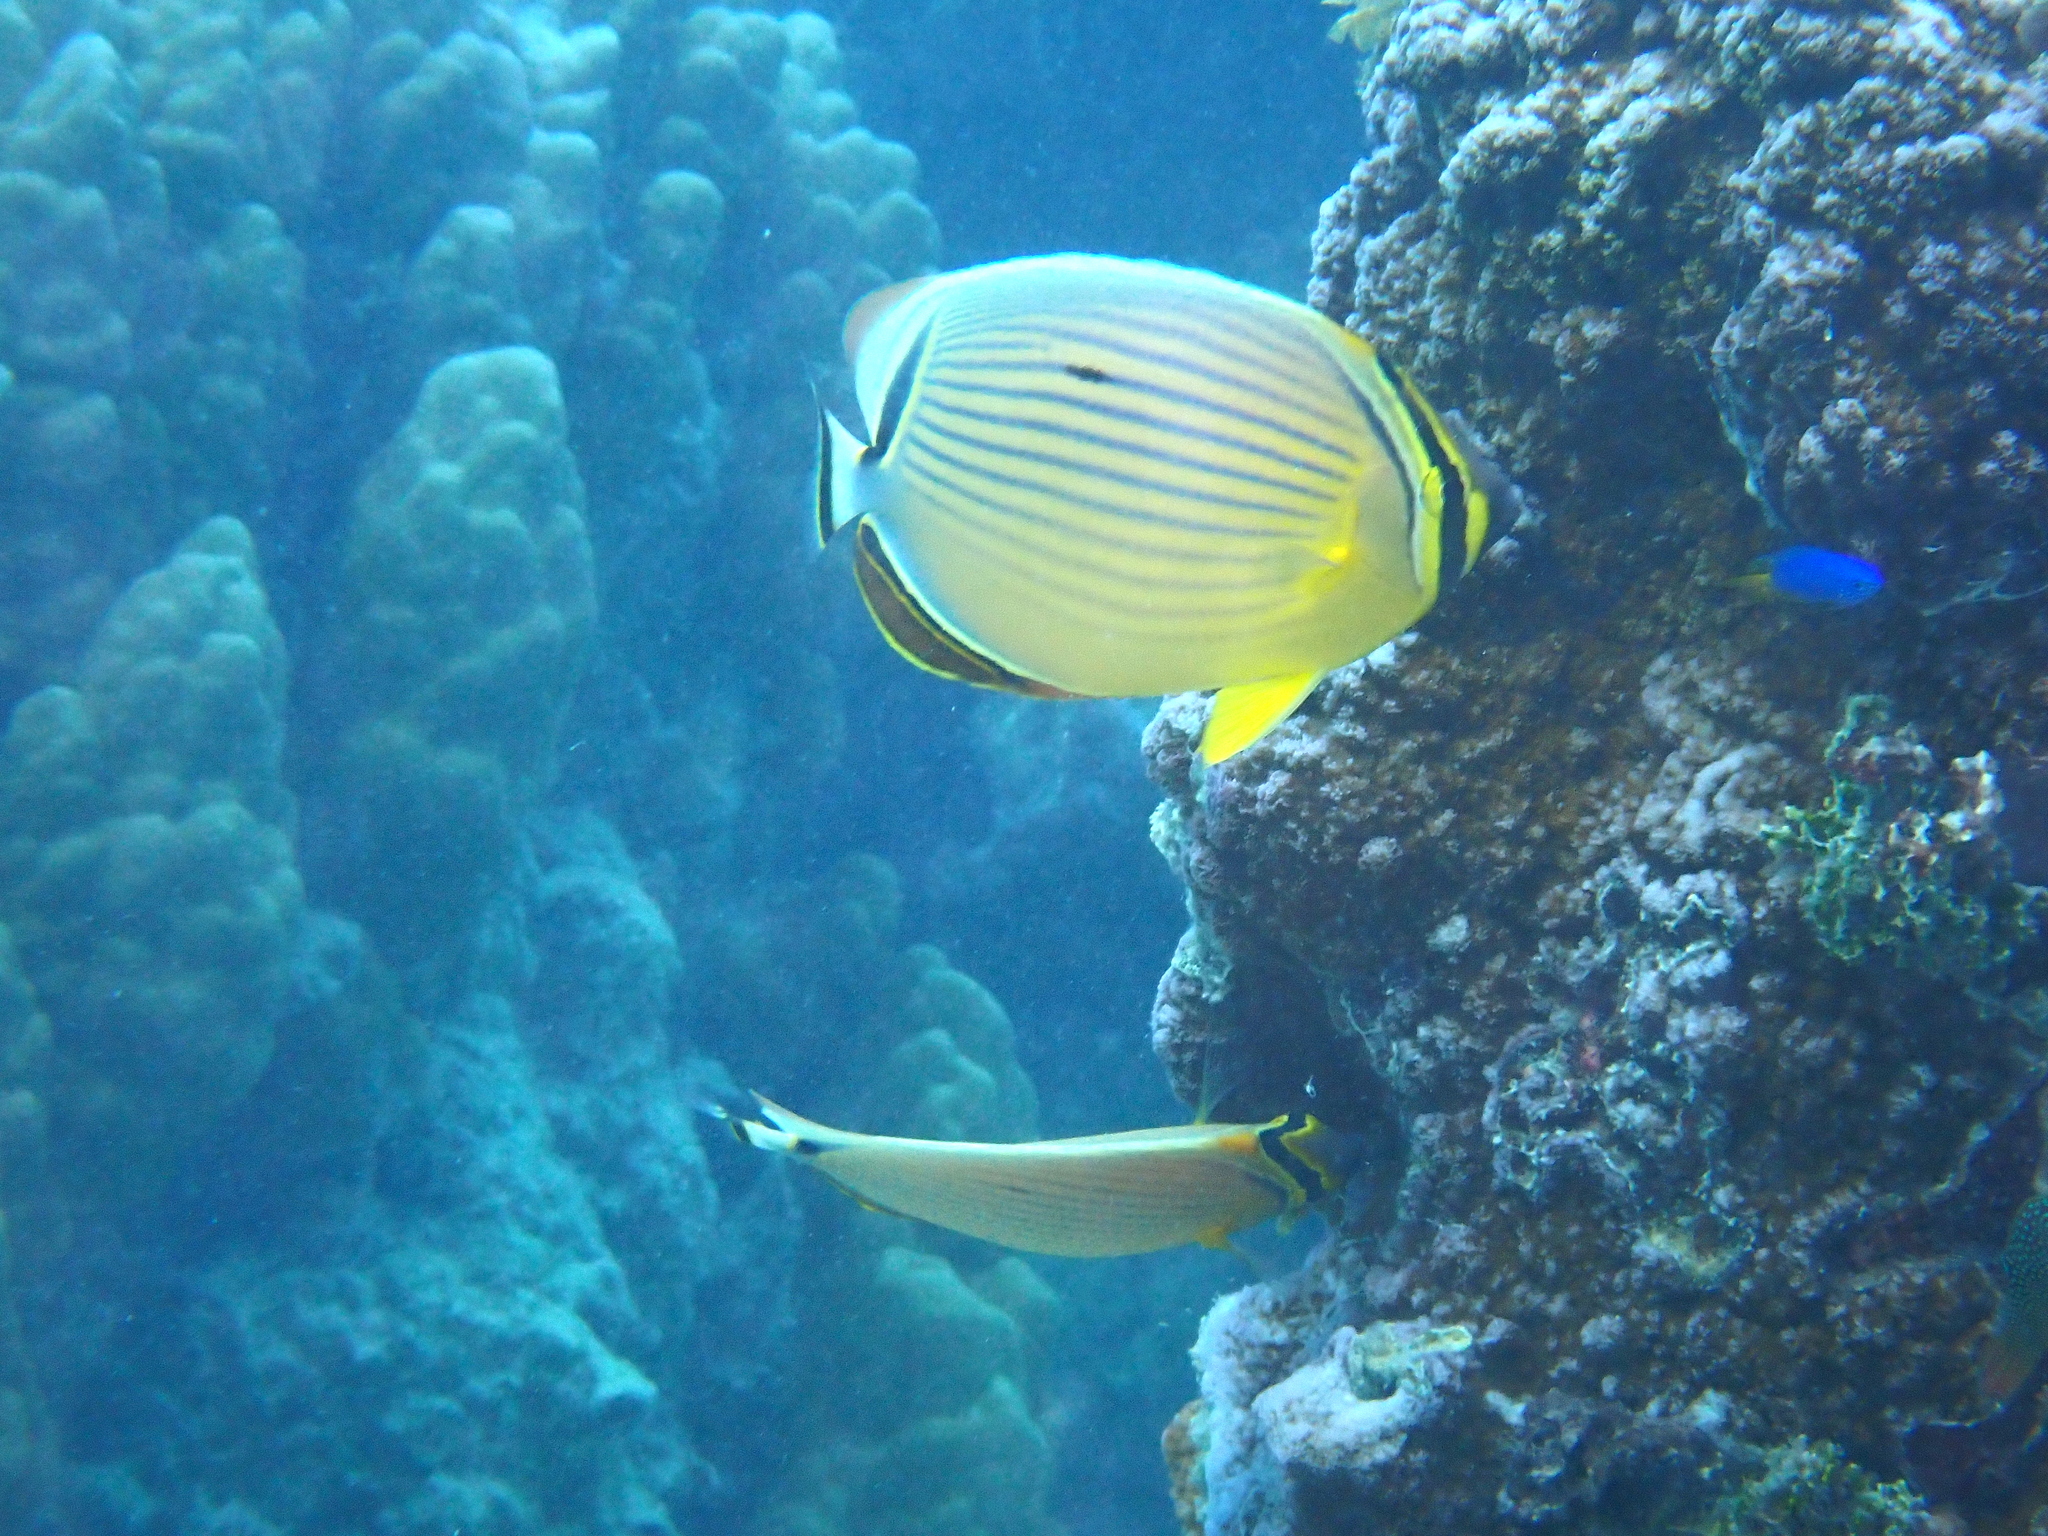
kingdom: Animalia
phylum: Chordata
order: Perciformes
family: Chaetodontidae
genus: Chaetodon
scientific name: Chaetodon lunulatus
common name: Redfin butterflyfish
